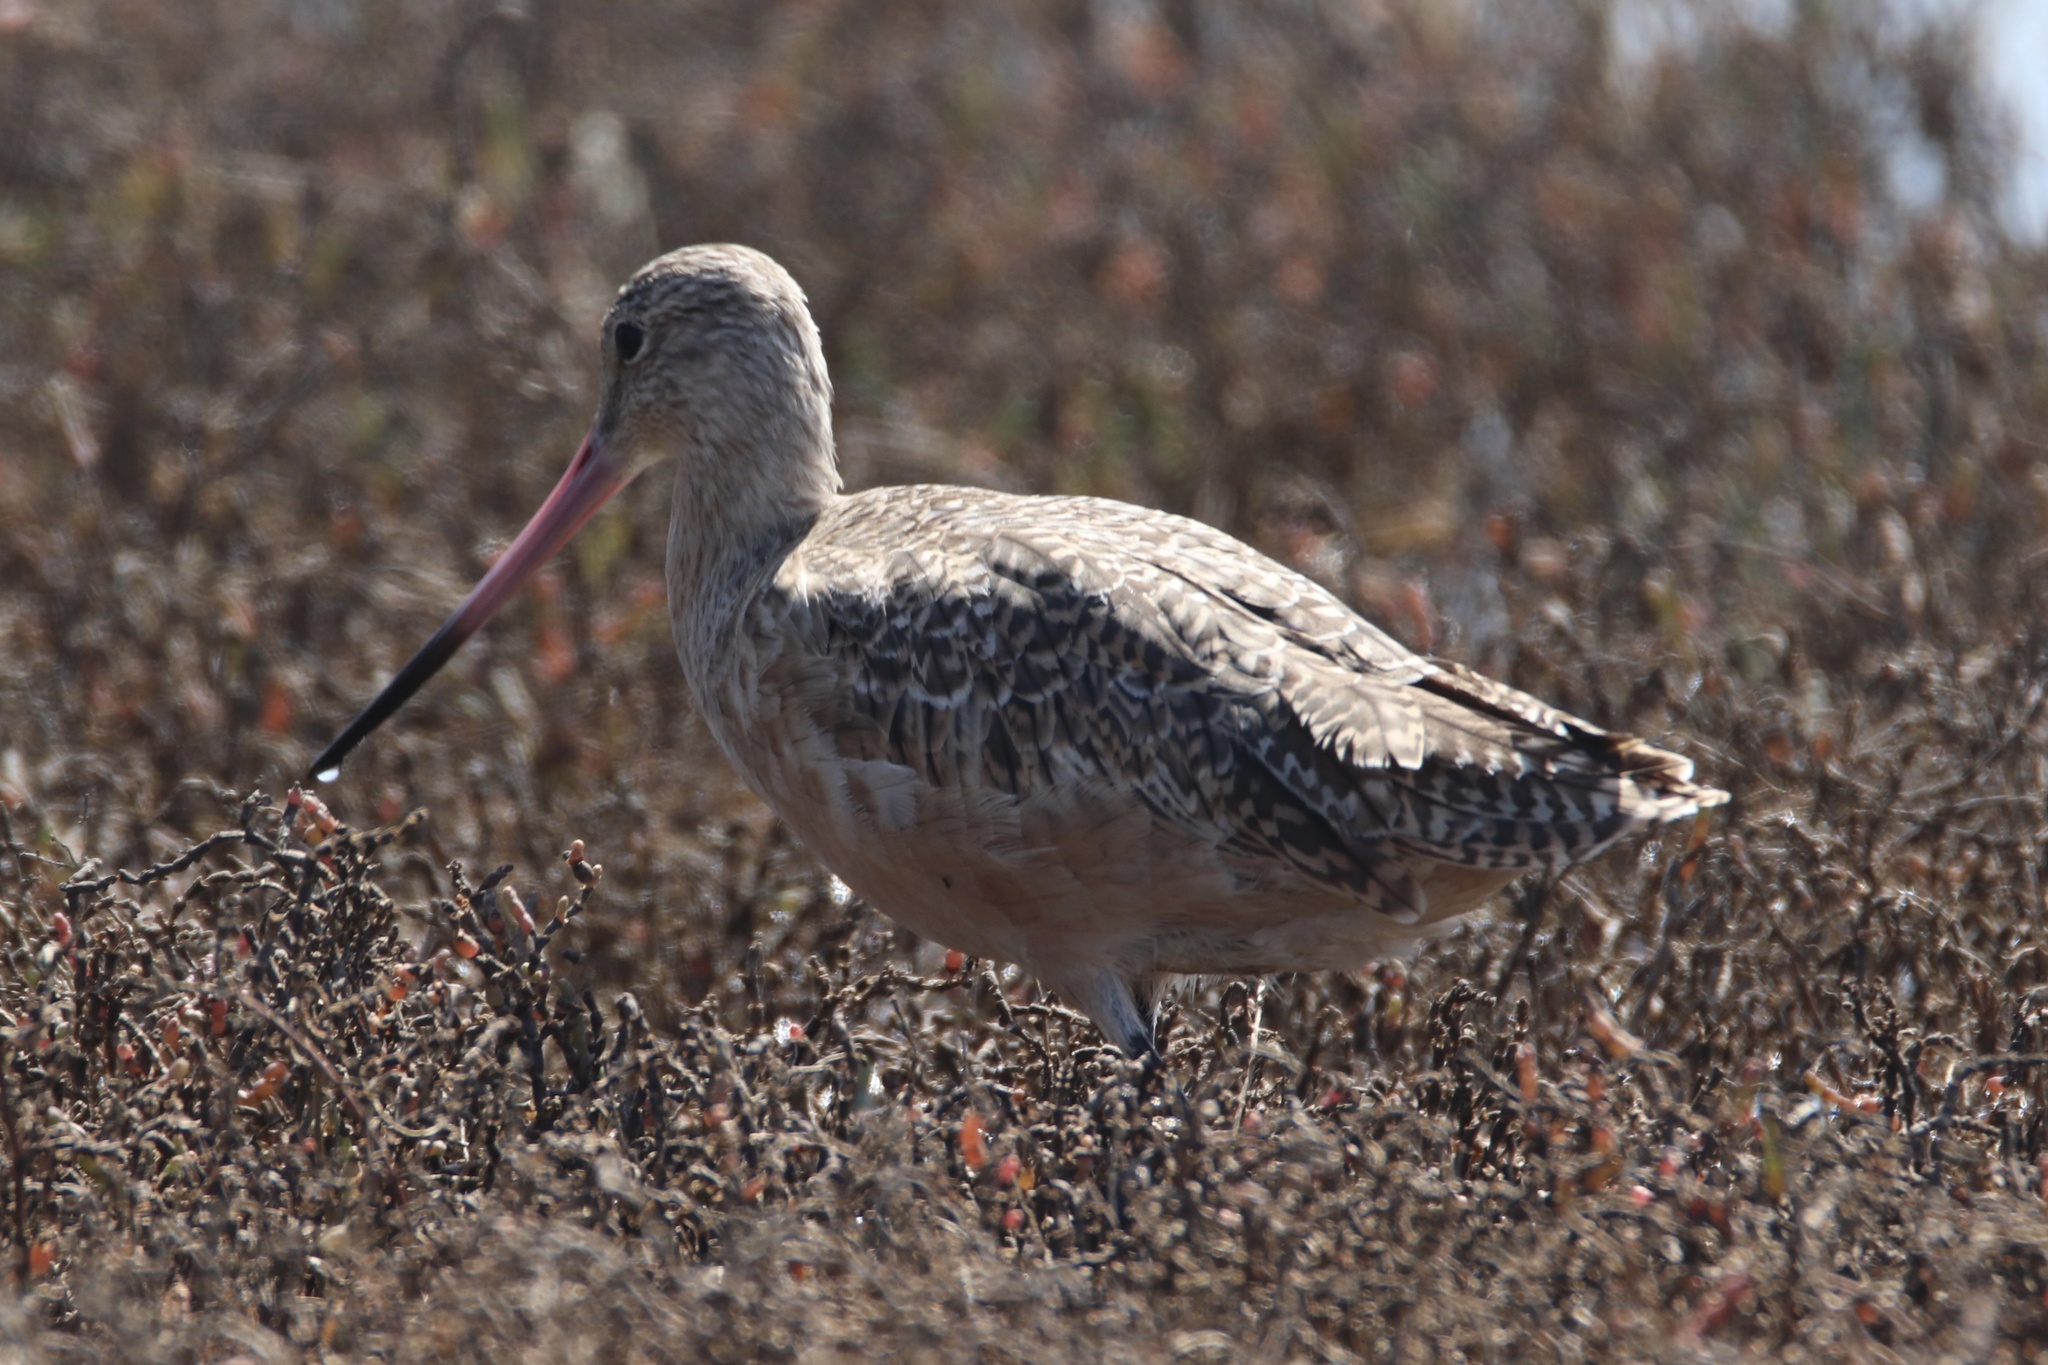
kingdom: Animalia
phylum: Chordata
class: Aves
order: Charadriiformes
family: Scolopacidae
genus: Limosa
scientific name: Limosa fedoa
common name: Marbled godwit
